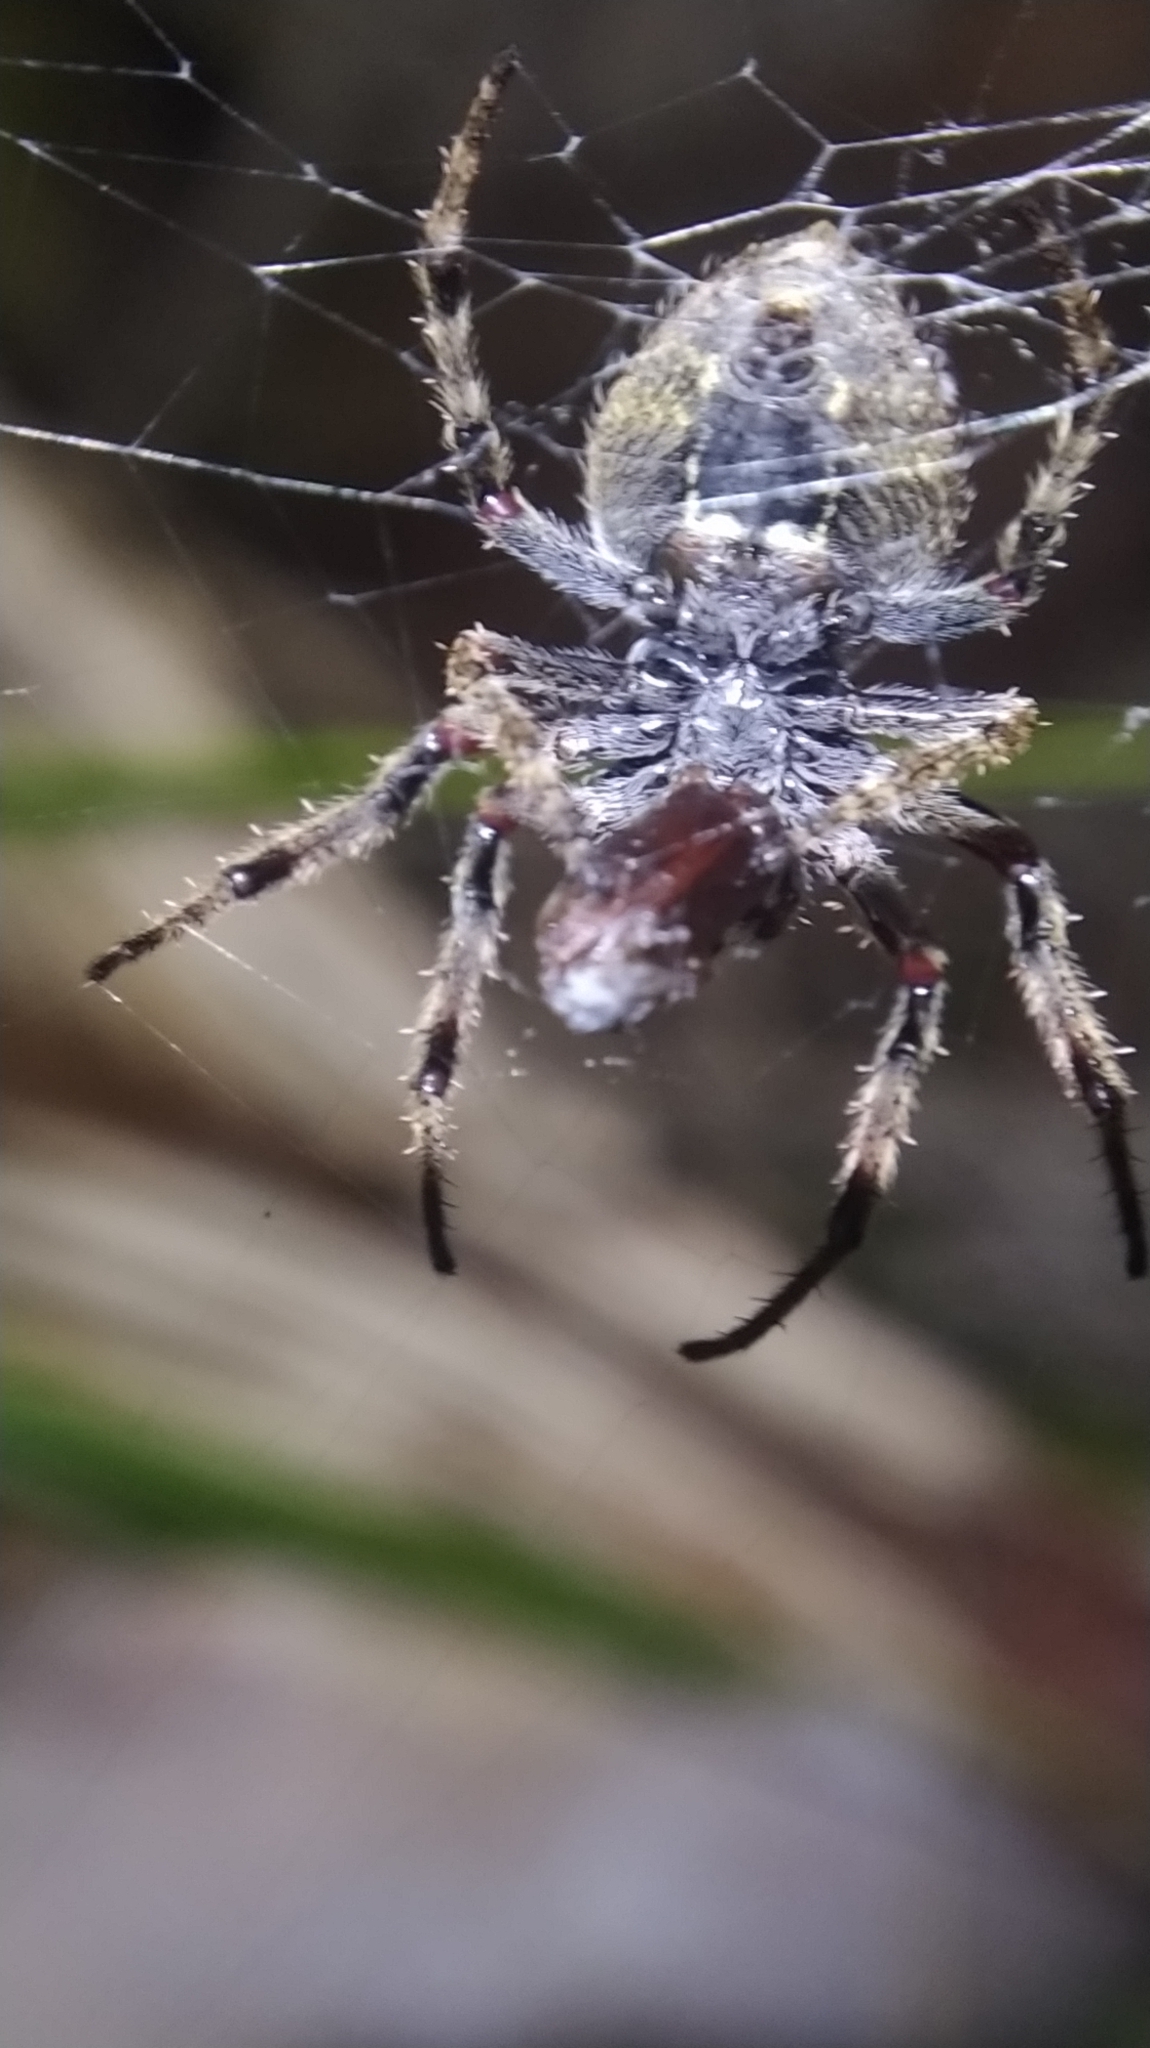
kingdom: Animalia
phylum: Arthropoda
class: Arachnida
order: Araneae
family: Araneidae
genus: Eriophora
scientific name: Eriophora pustulosa
